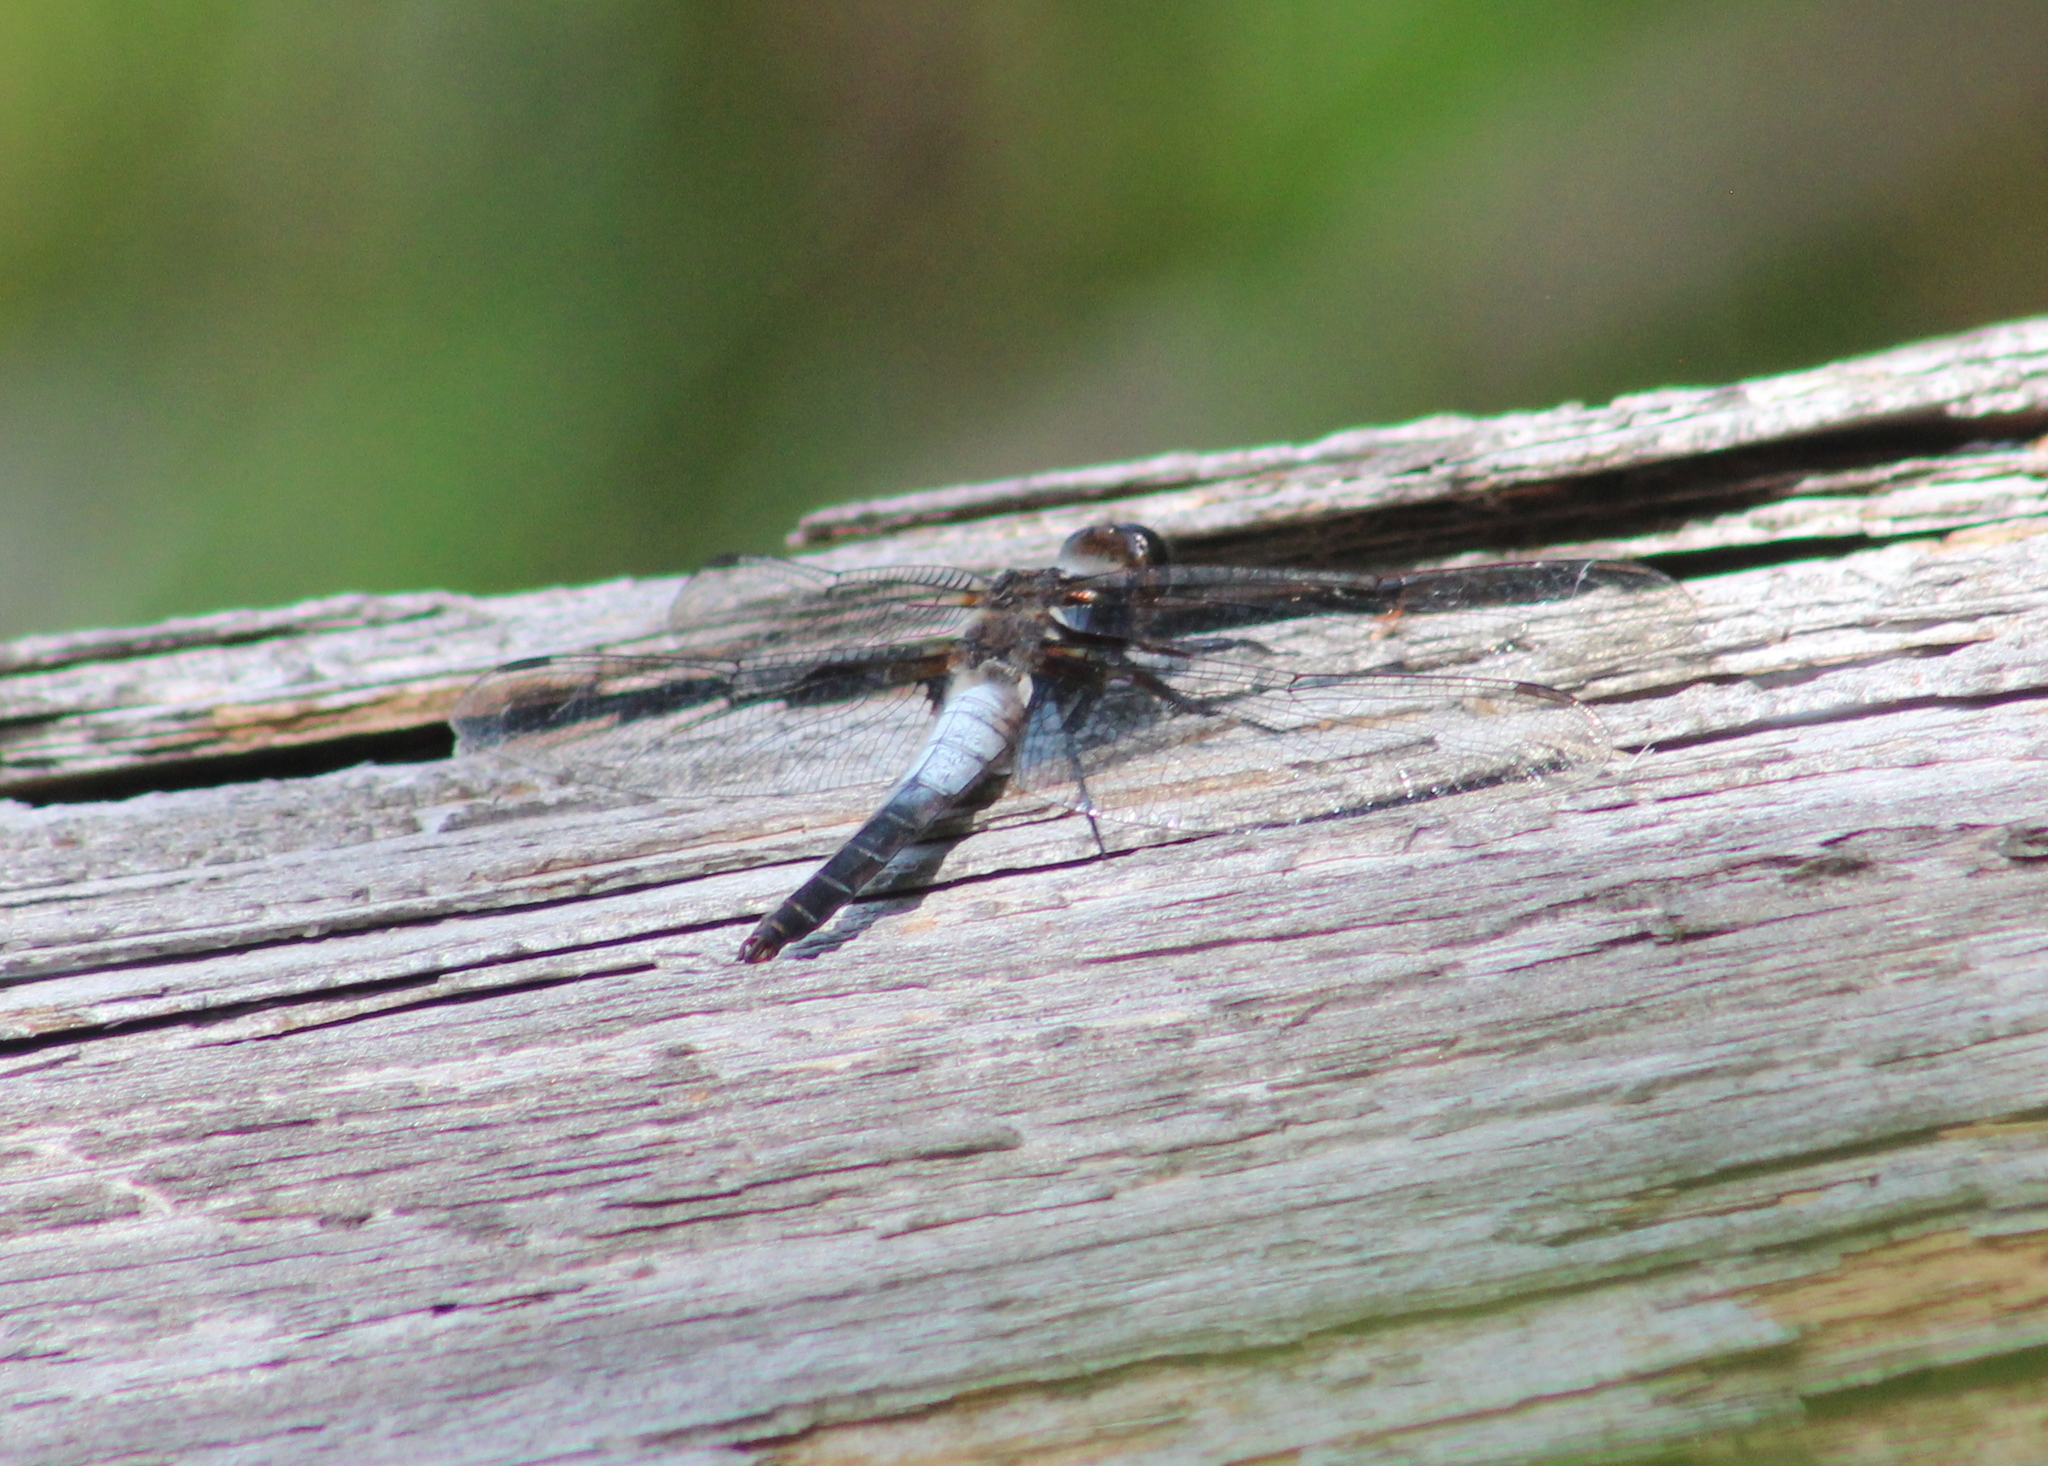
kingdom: Animalia
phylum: Arthropoda
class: Insecta
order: Odonata
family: Libellulidae
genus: Ladona
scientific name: Ladona julia
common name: Chalk-fronted corporal
